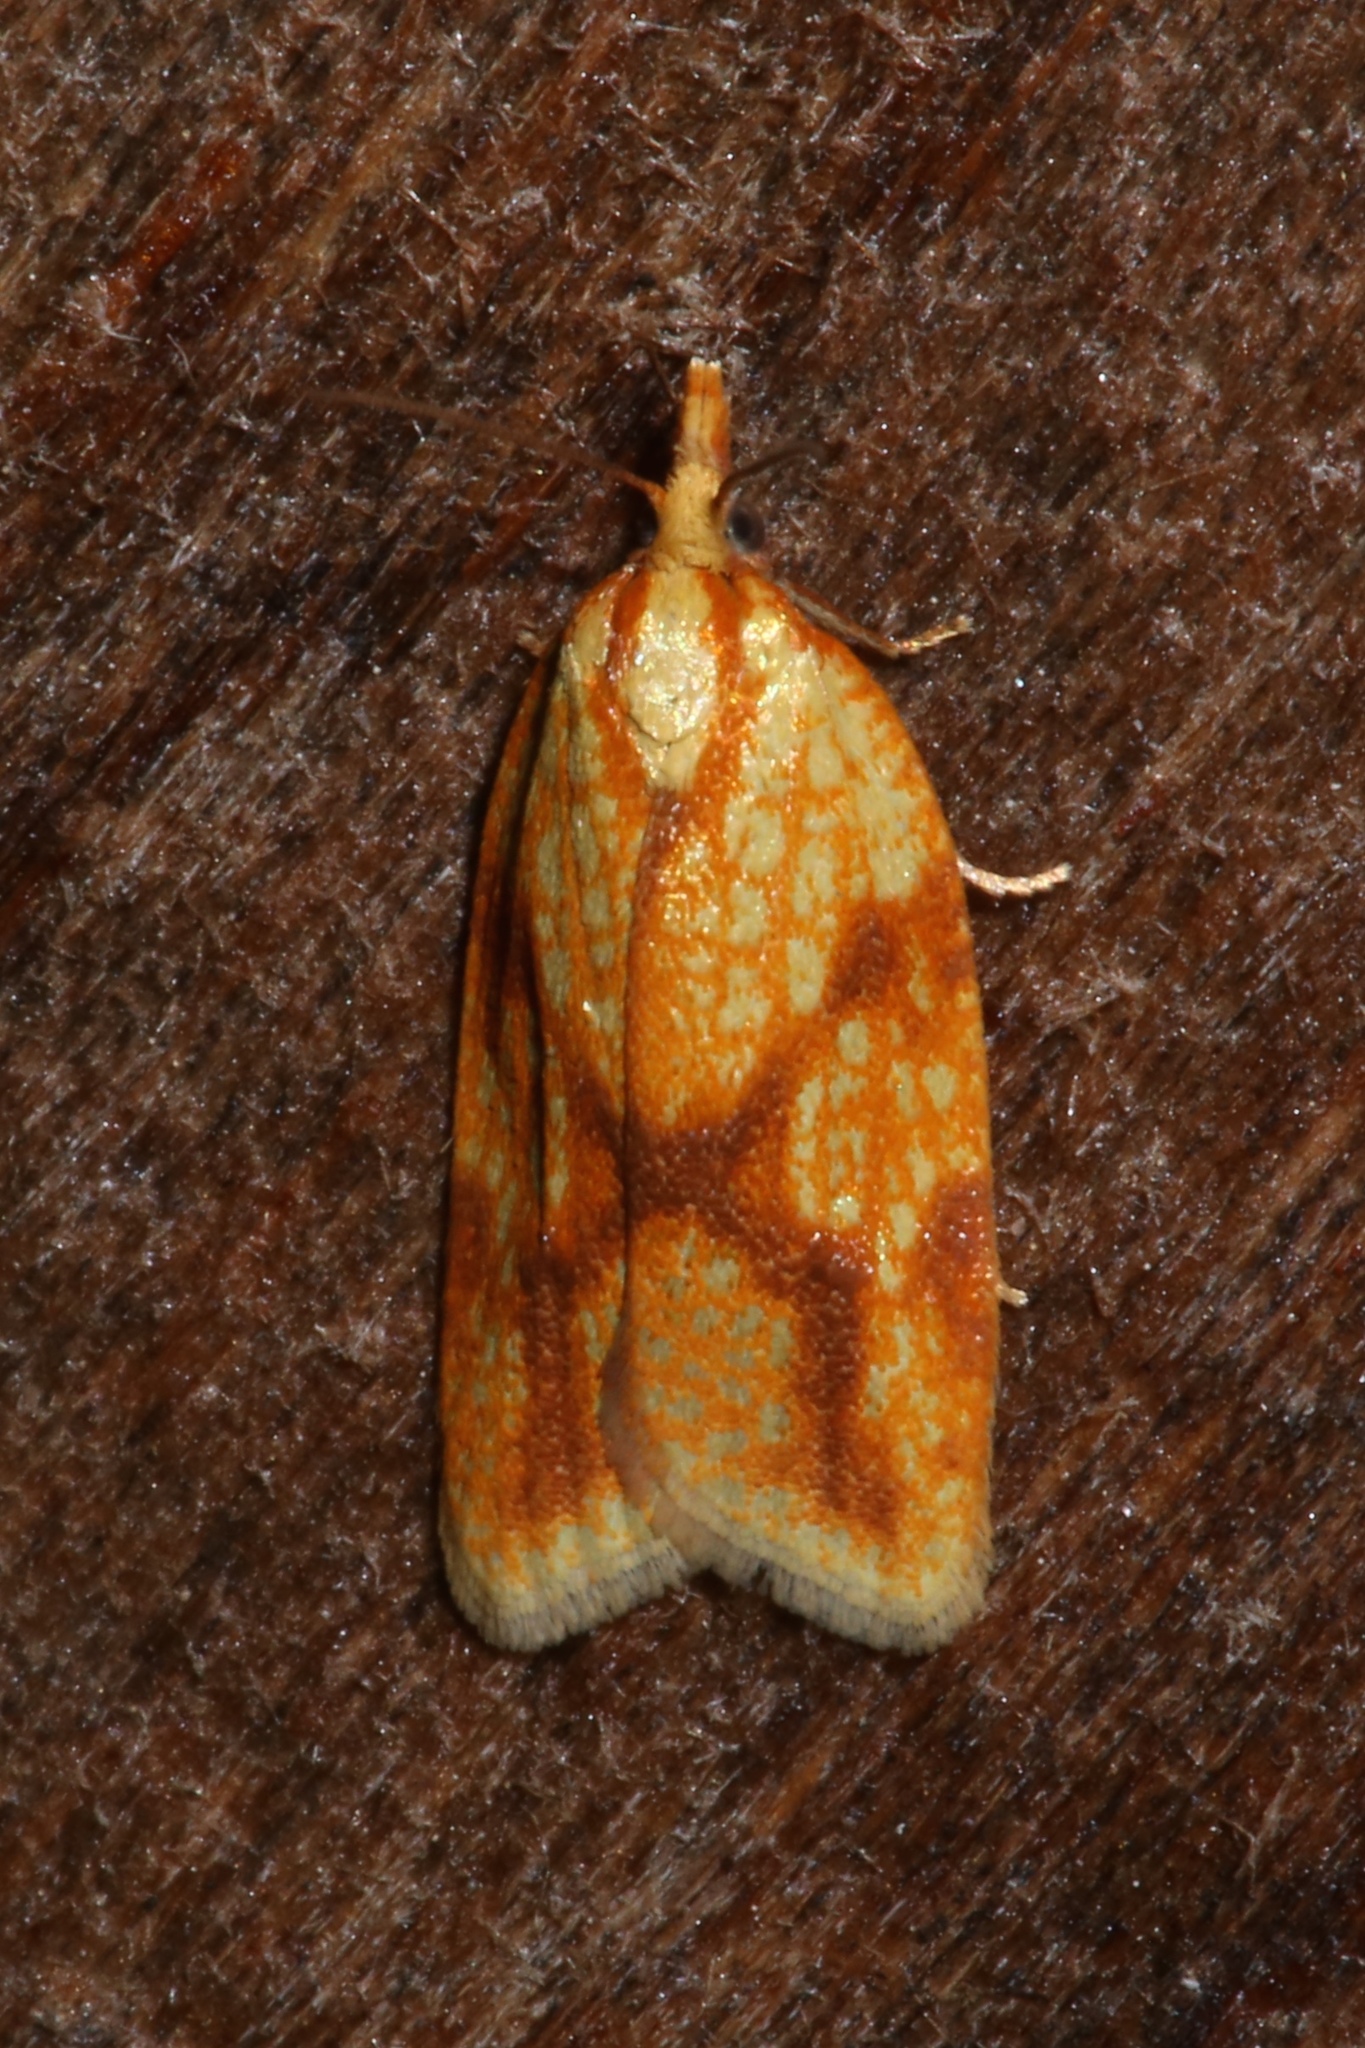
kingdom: Animalia
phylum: Arthropoda
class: Insecta
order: Lepidoptera
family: Tortricidae
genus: Sparganothis
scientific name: Sparganothis sulfureana
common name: Sparganothis fruitworm moth
